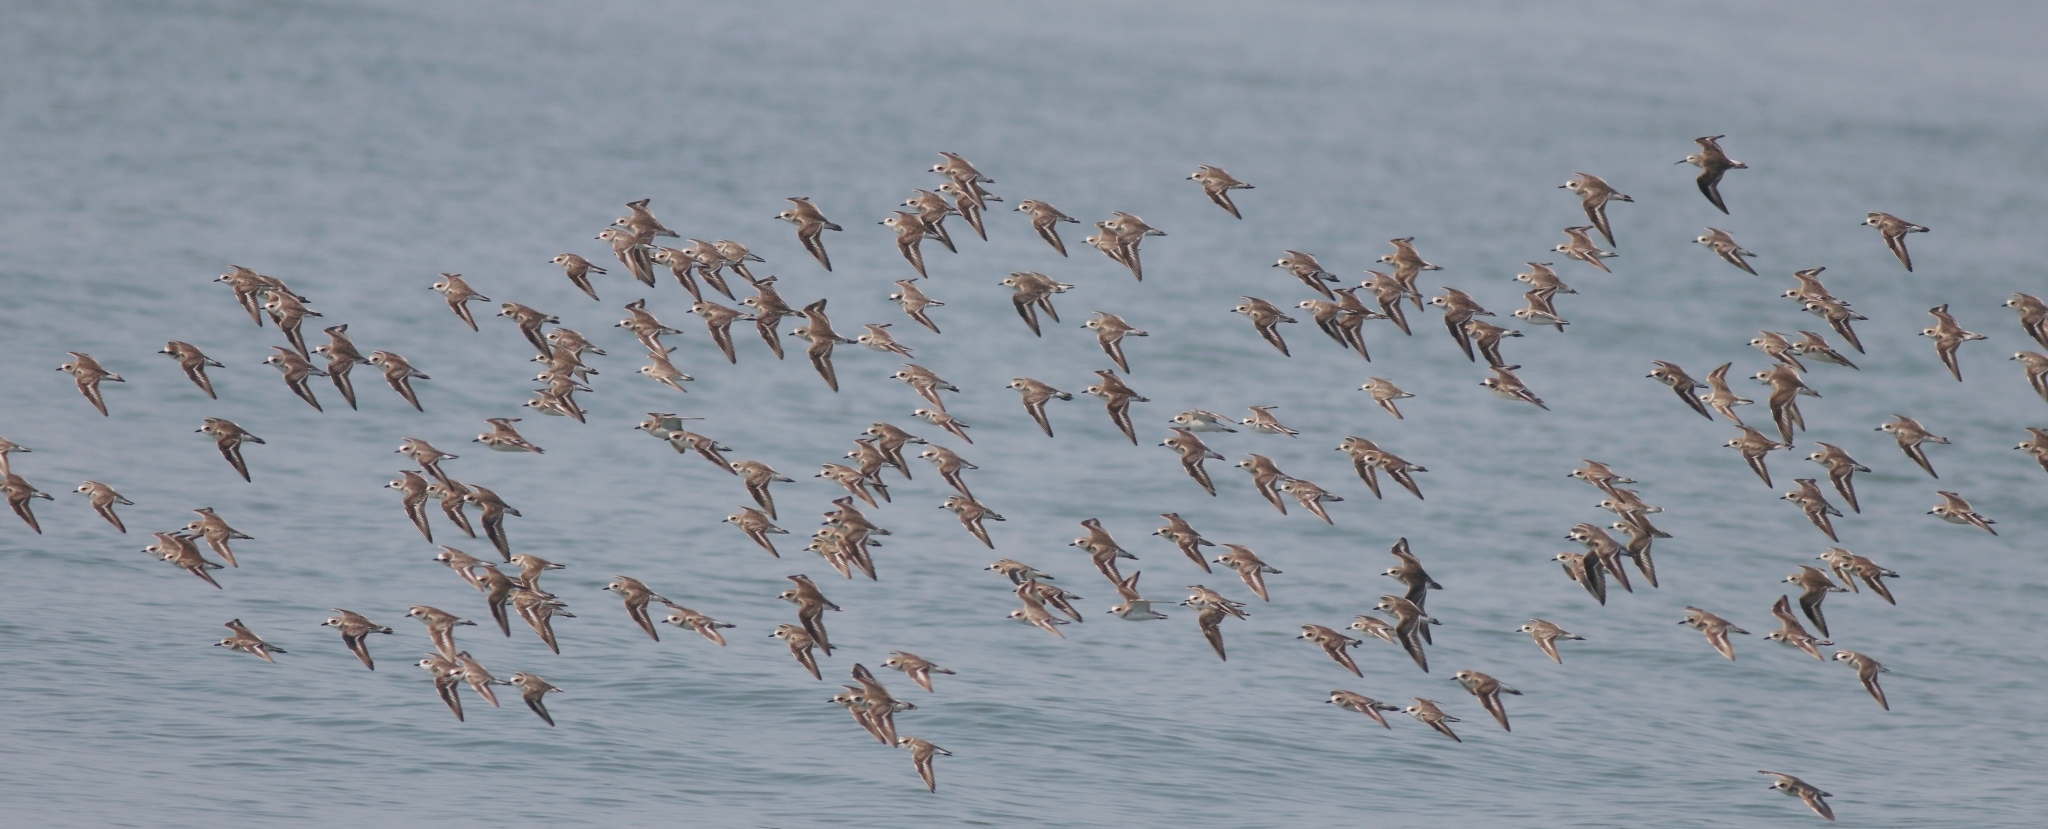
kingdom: Animalia
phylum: Chordata
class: Aves
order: Charadriiformes
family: Charadriidae
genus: Anarhynchus
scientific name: Anarhynchus
